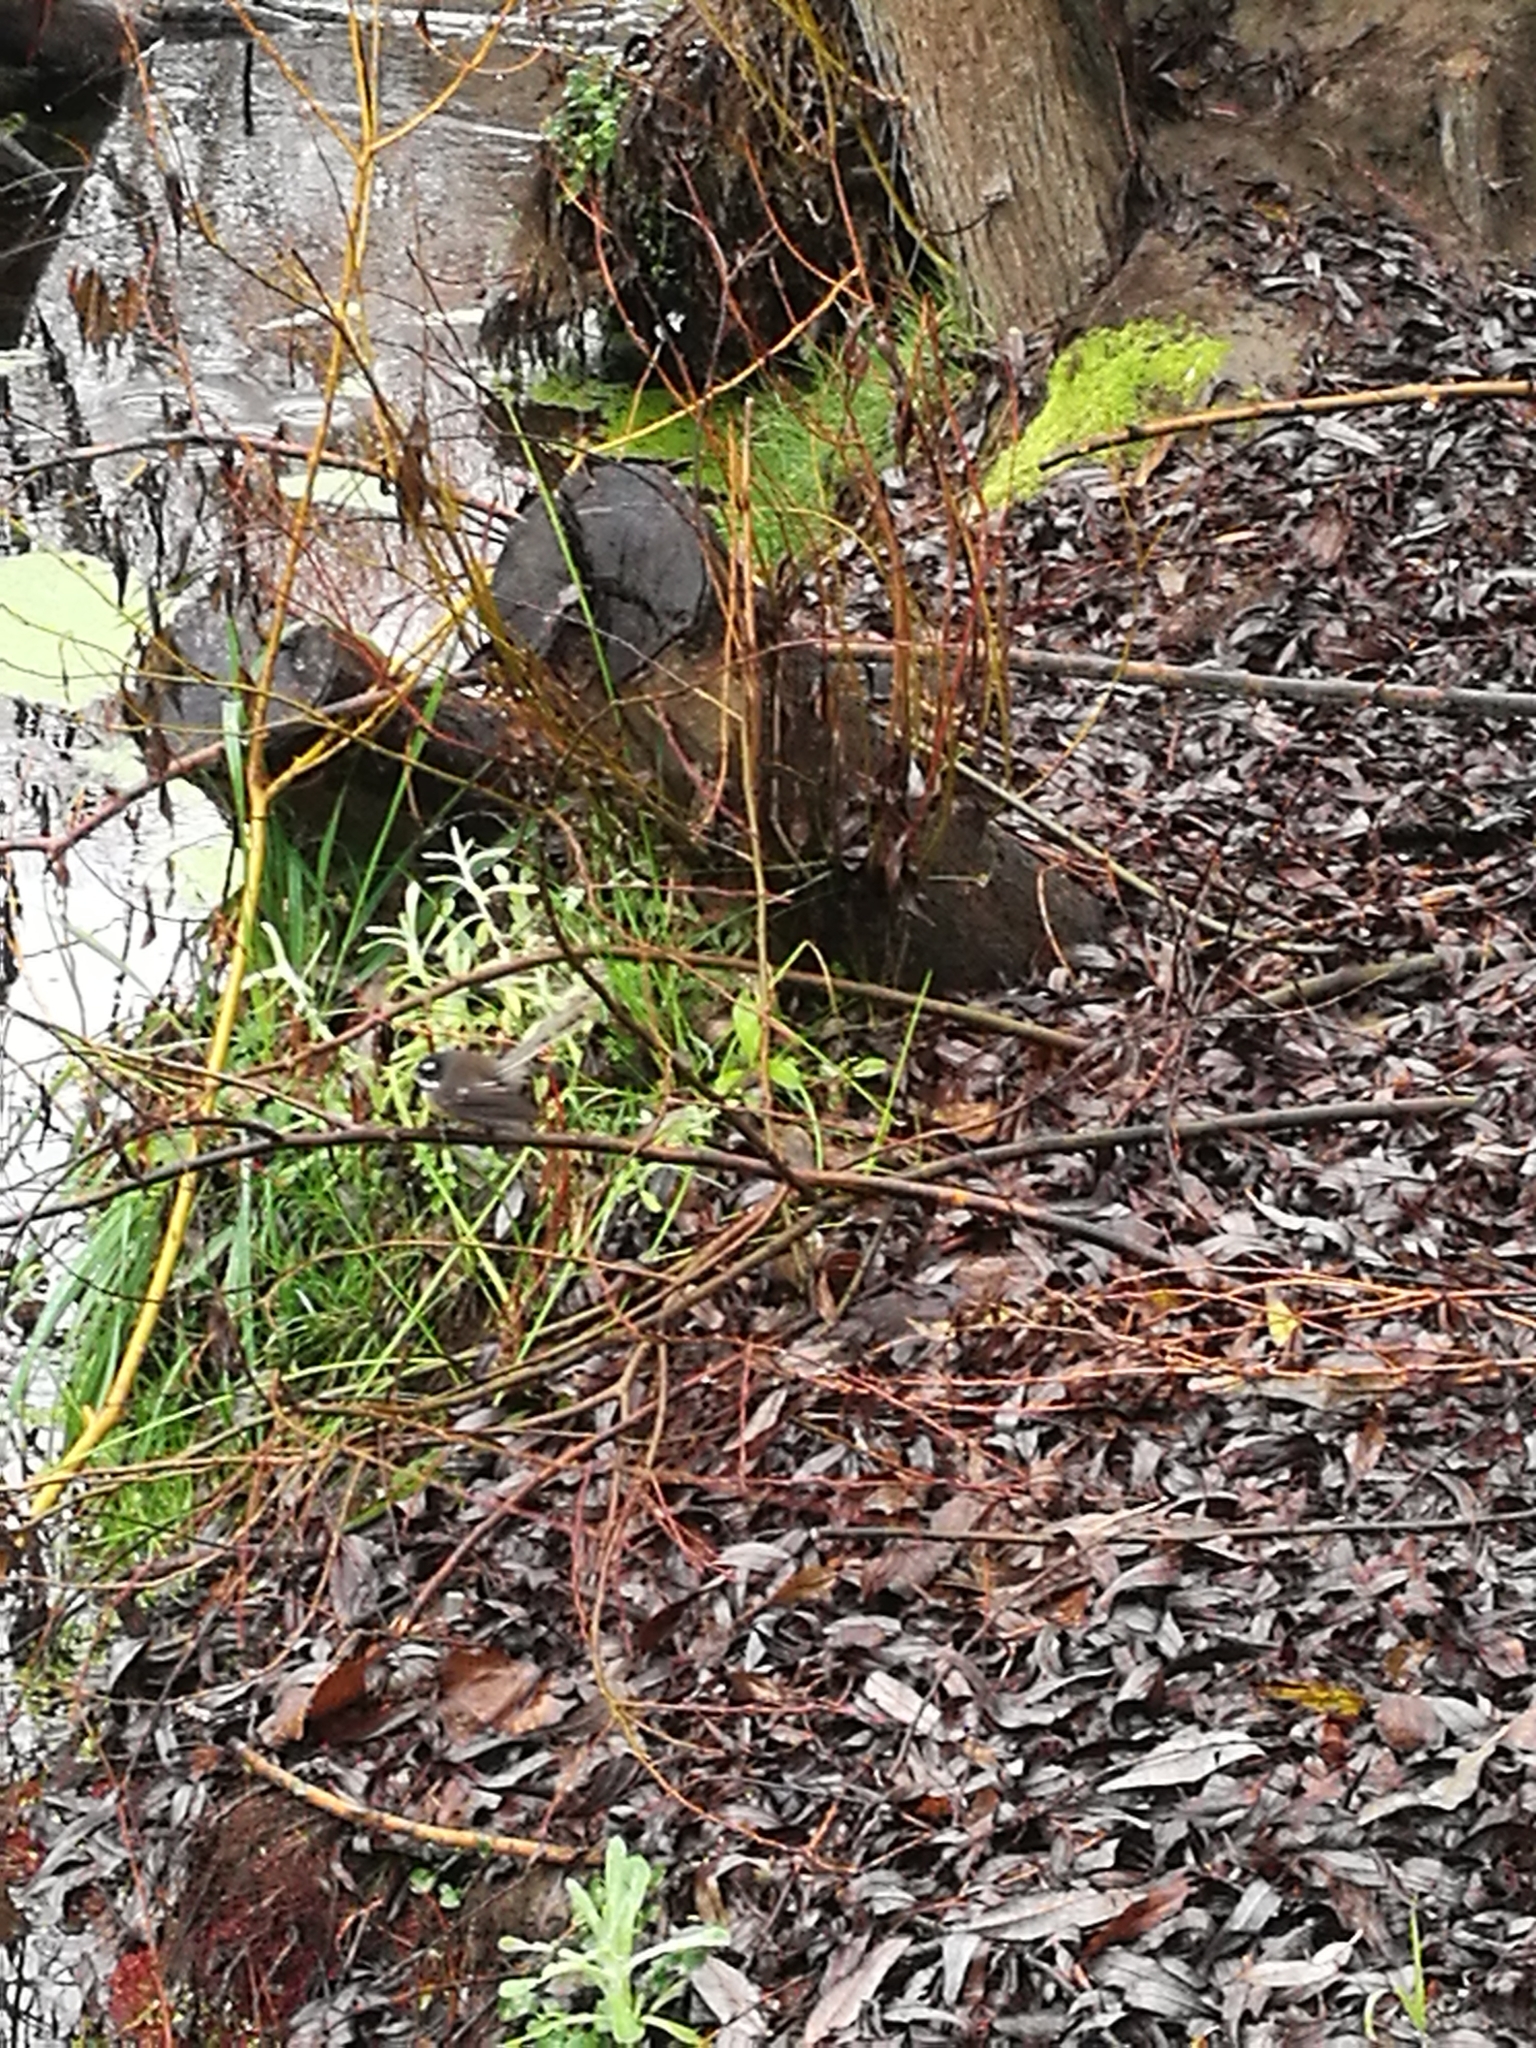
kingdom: Animalia
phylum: Chordata
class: Aves
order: Passeriformes
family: Rhipiduridae
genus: Rhipidura
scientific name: Rhipidura fuliginosa
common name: New zealand fantail
